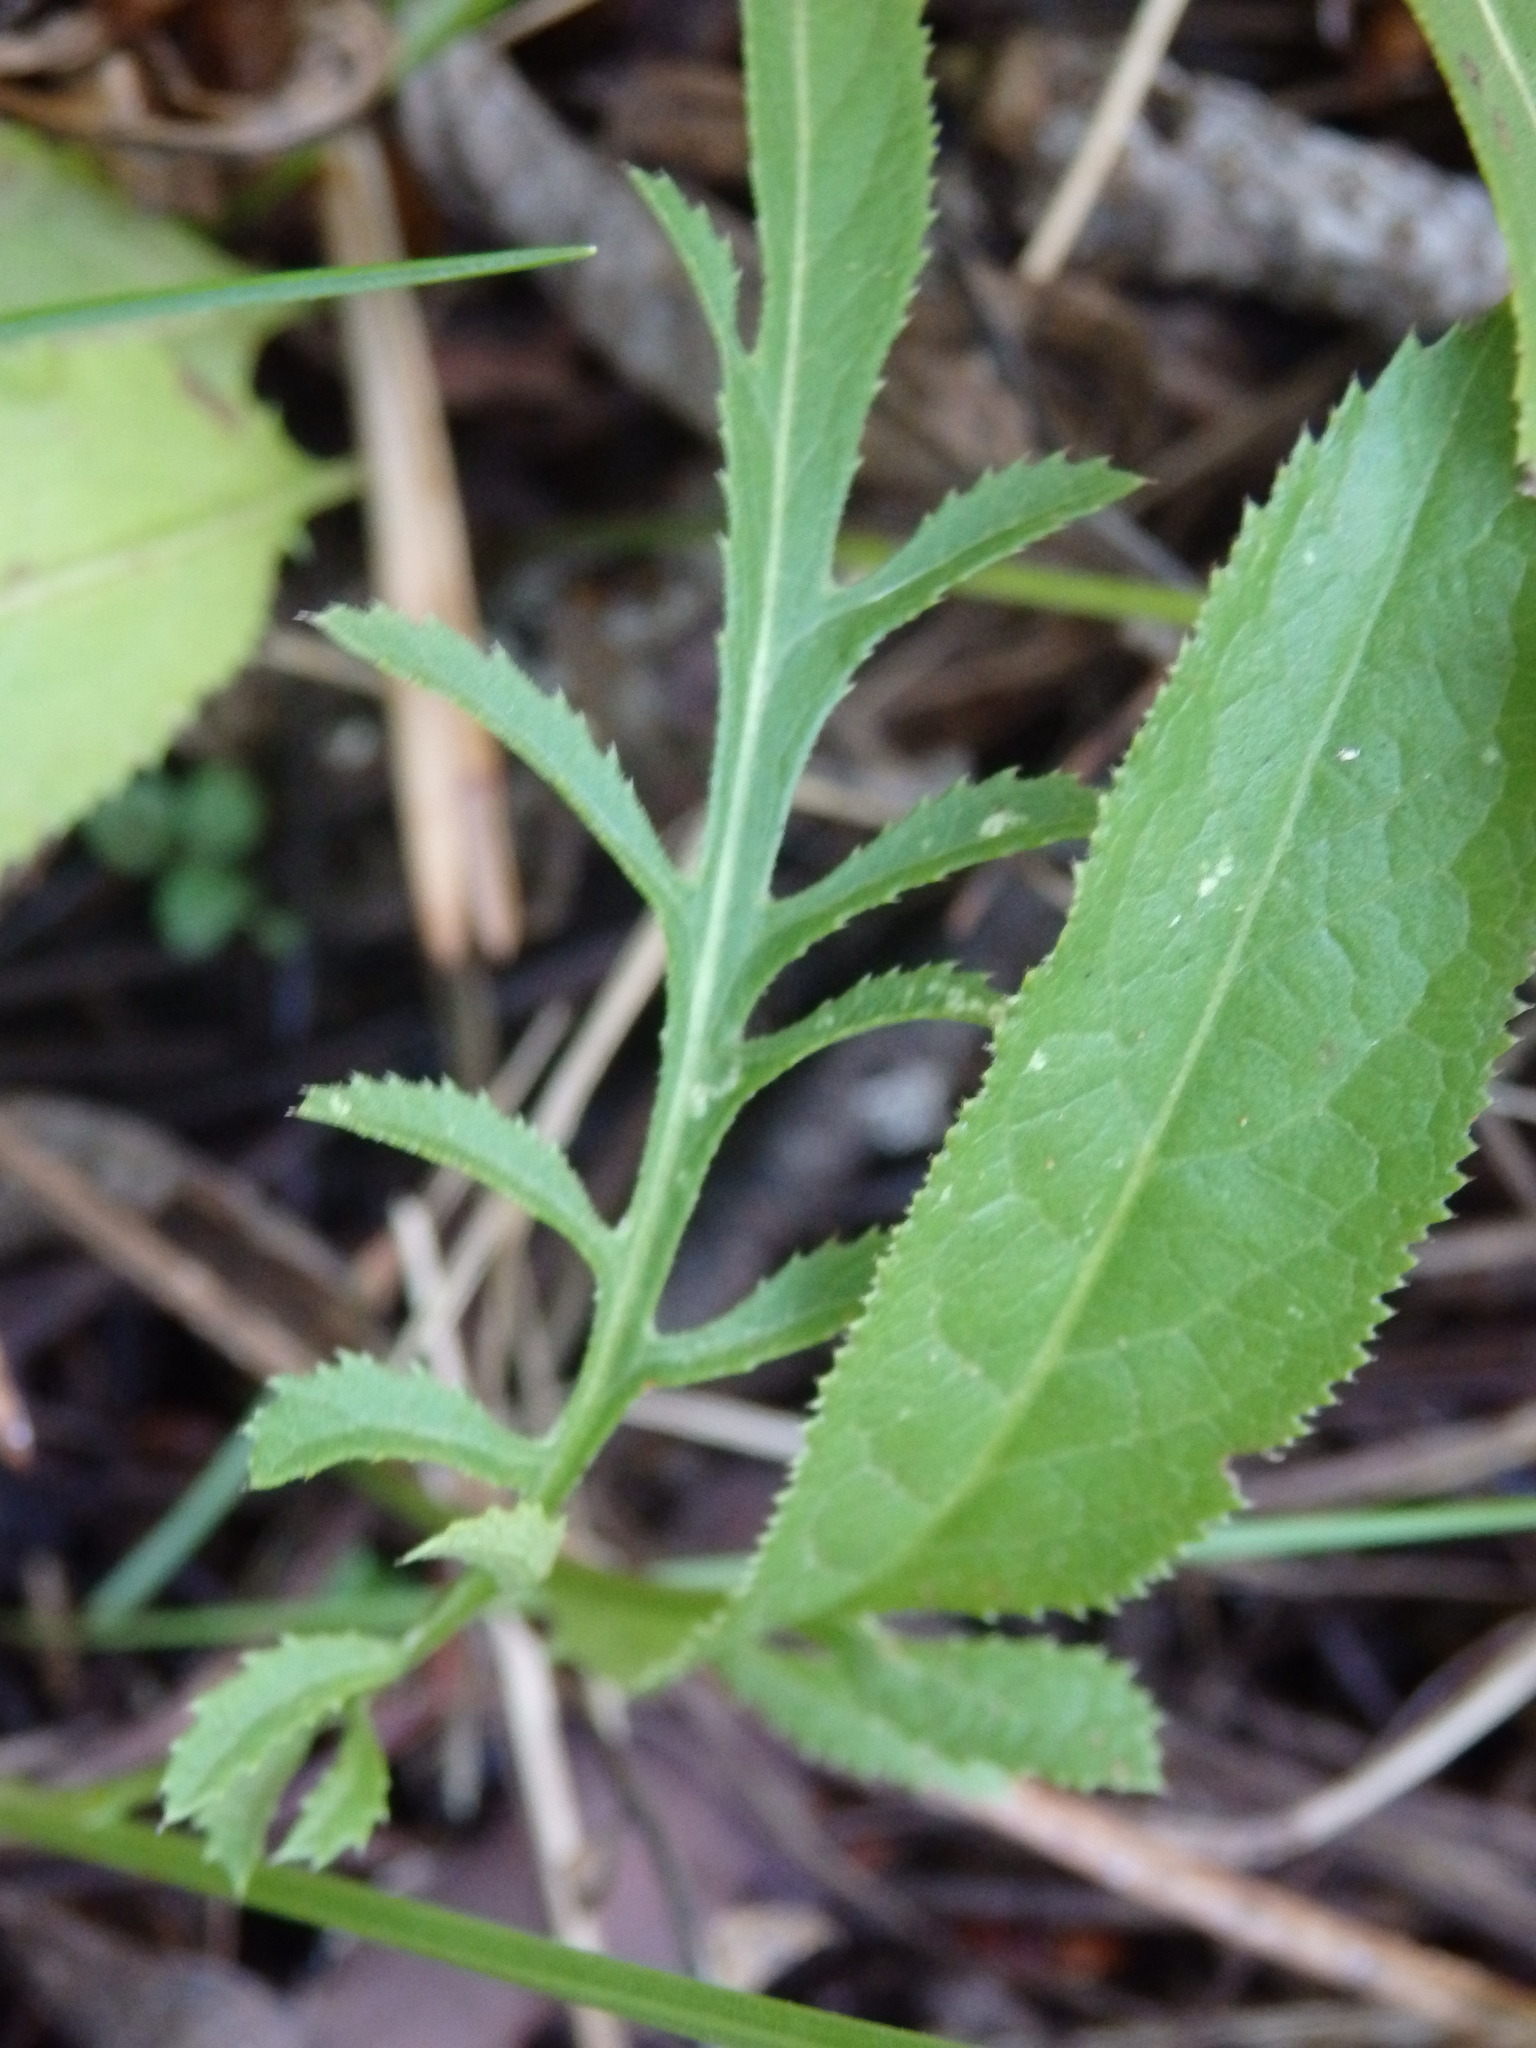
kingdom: Plantae
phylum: Tracheophyta
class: Magnoliopsida
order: Asterales
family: Asteraceae
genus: Serratula
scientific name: Serratula tinctoria
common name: Saw-wort
